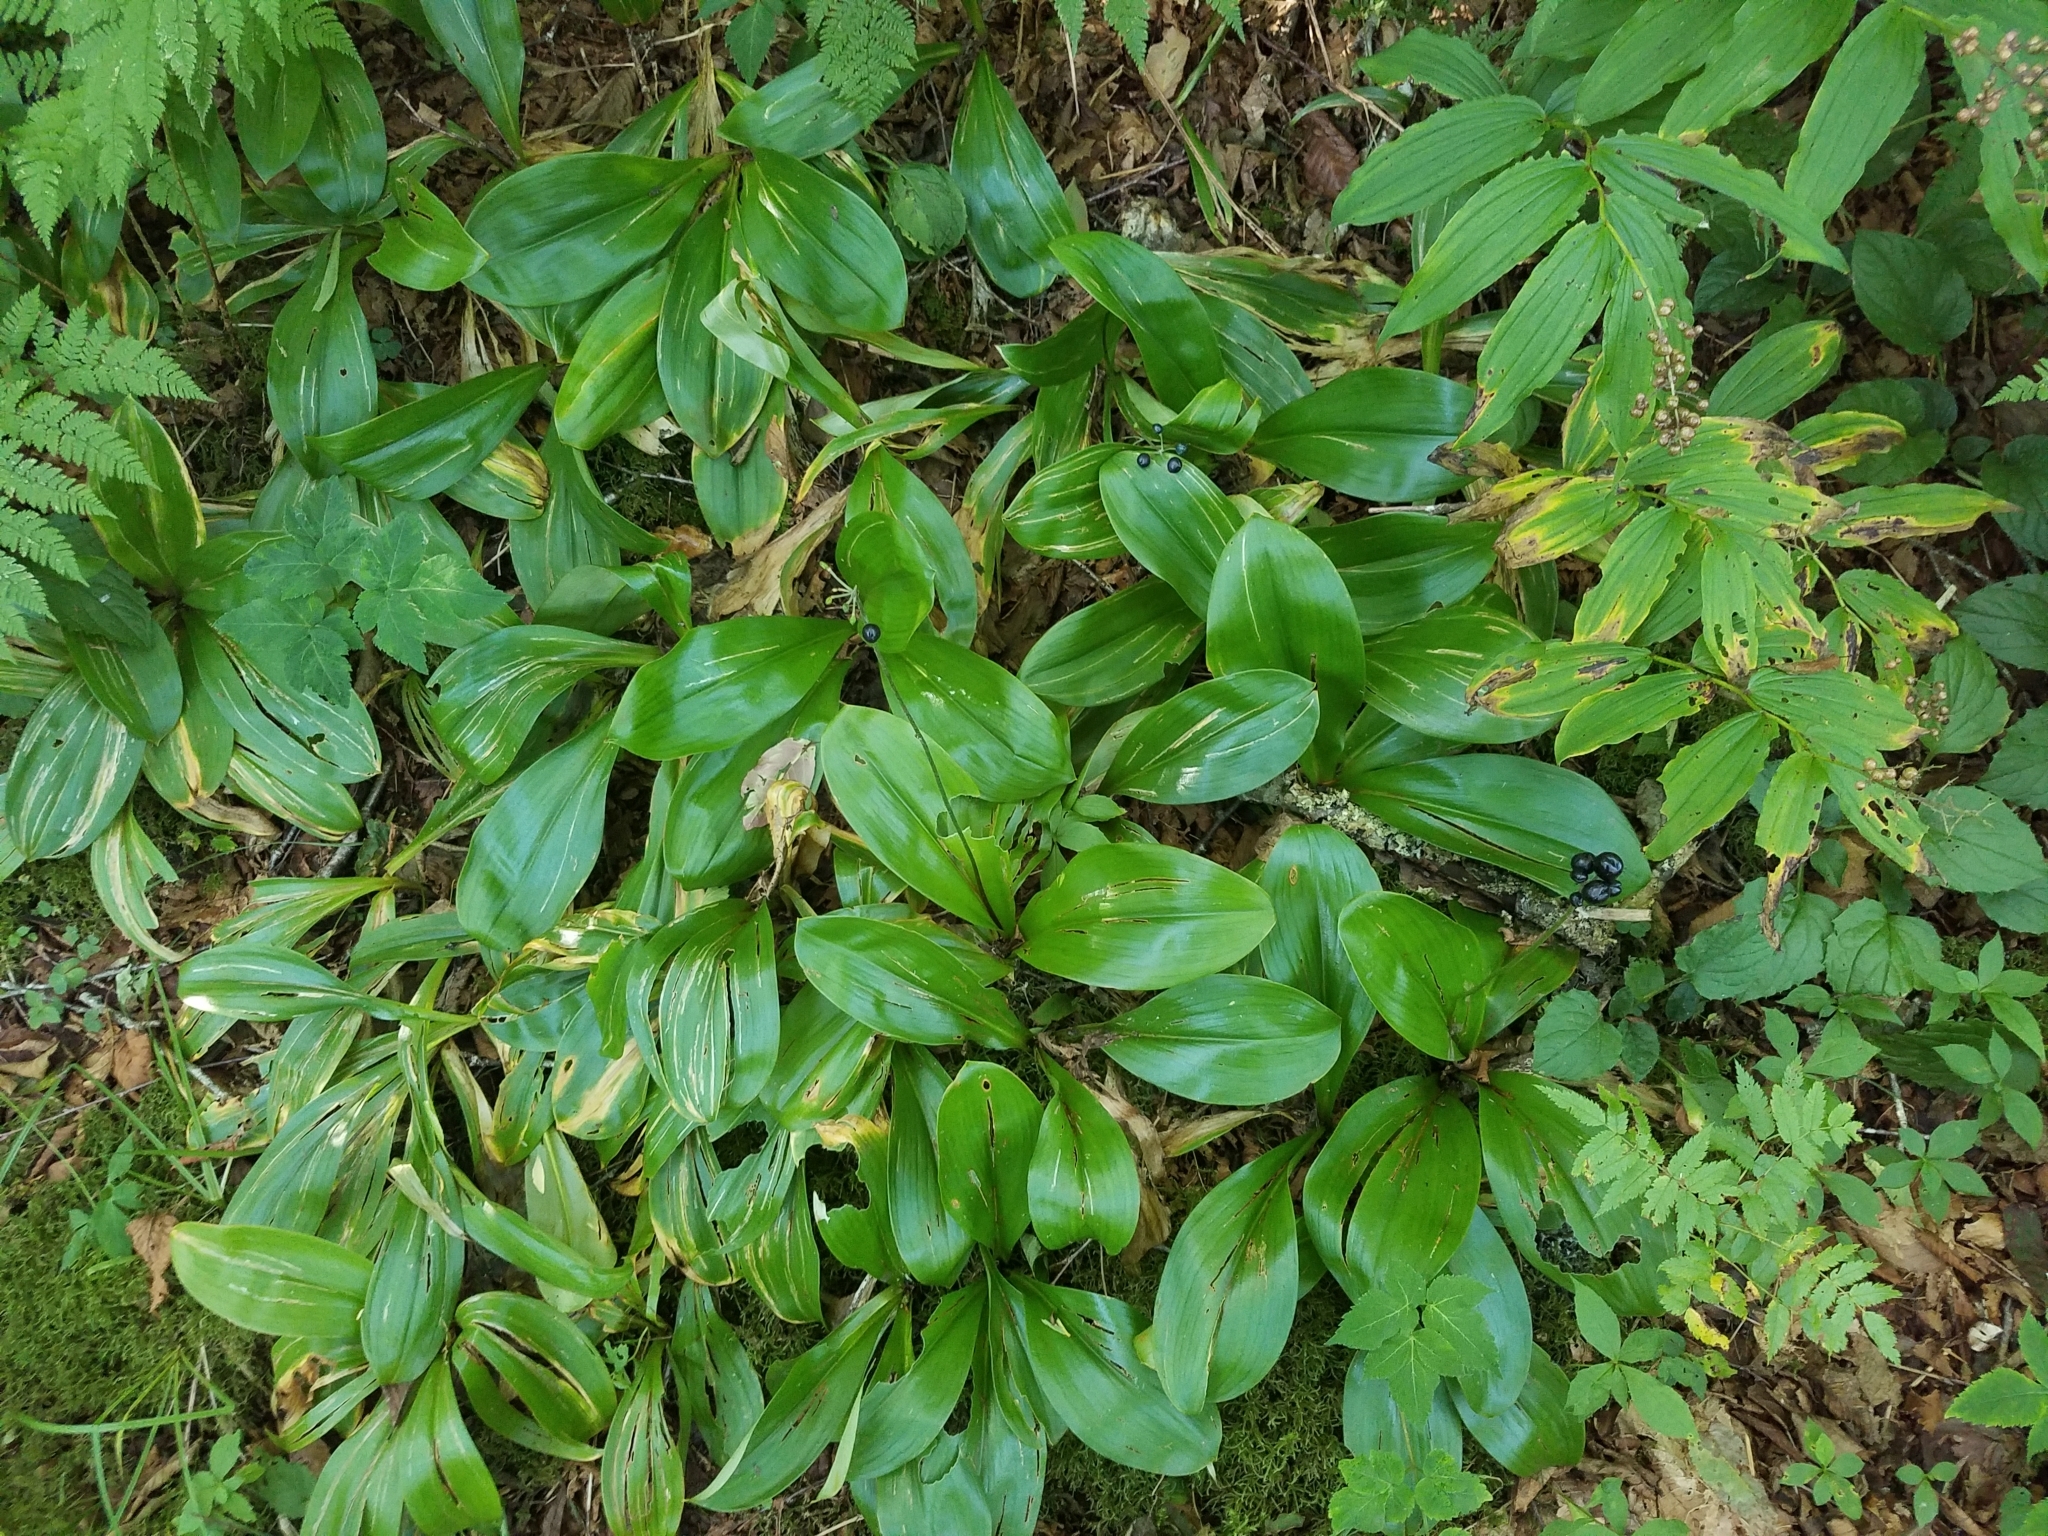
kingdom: Plantae
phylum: Tracheophyta
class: Liliopsida
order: Liliales
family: Liliaceae
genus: Clintonia
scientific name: Clintonia borealis
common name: Yellow clintonia
